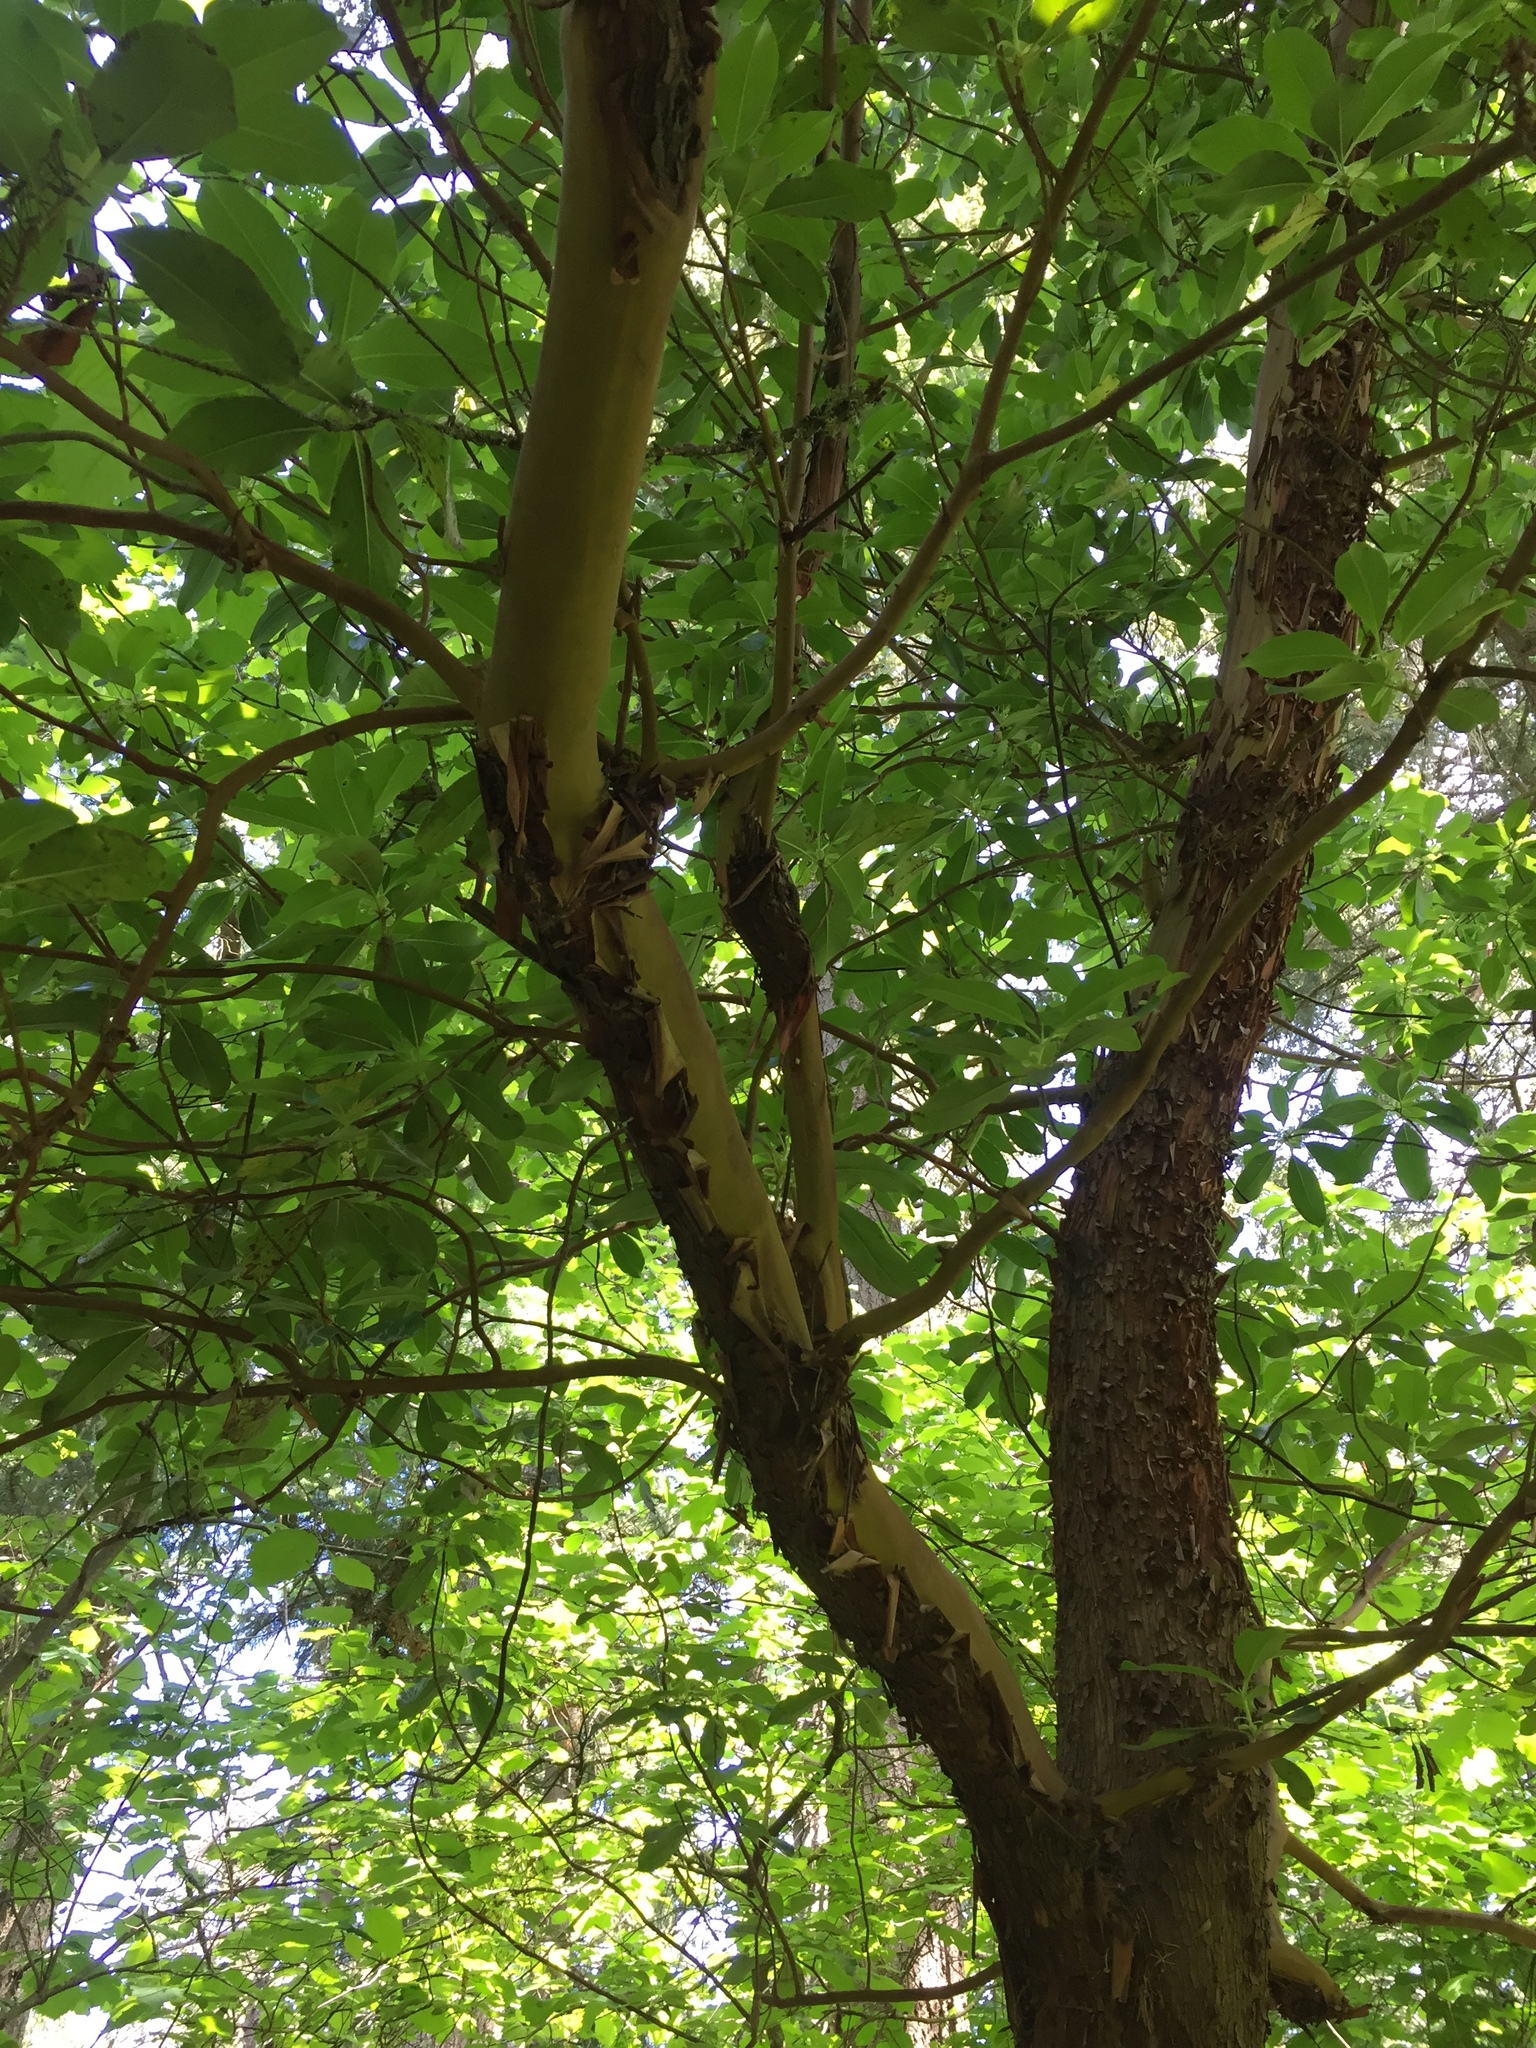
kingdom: Plantae
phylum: Tracheophyta
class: Magnoliopsida
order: Ericales
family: Ericaceae
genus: Arbutus
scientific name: Arbutus menziesii
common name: Pacific madrone
